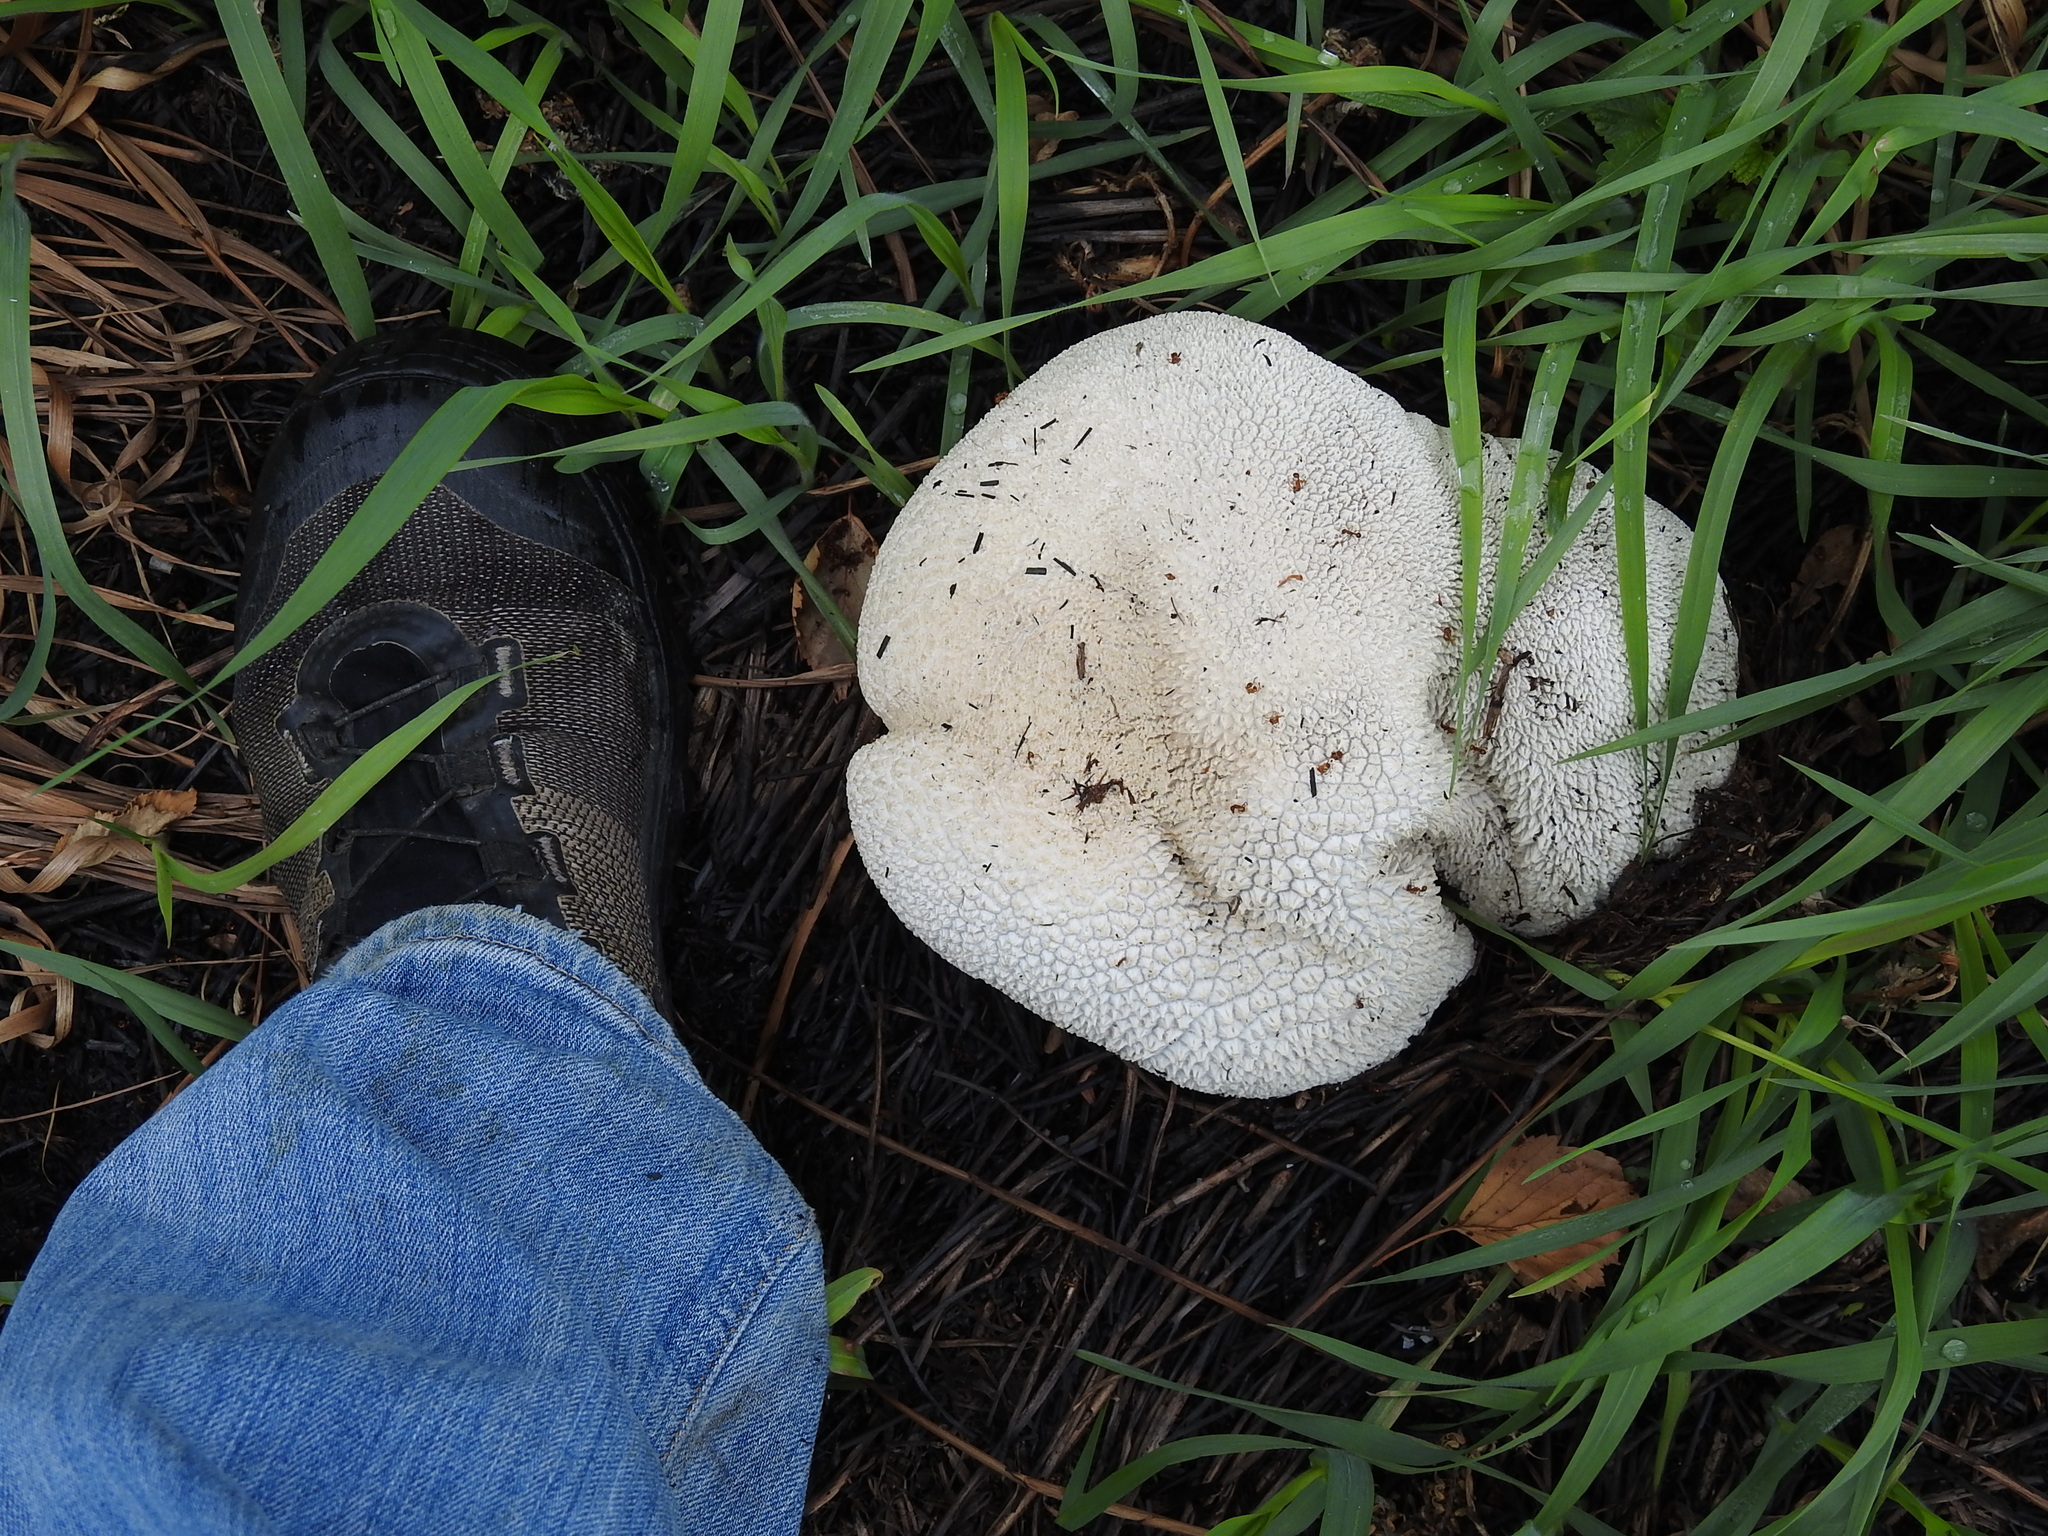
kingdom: Fungi
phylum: Basidiomycota
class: Agaricomycetes
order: Agaricales
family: Lycoperdaceae
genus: Lycoperdon
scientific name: Lycoperdon perlatum
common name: Common puffball
